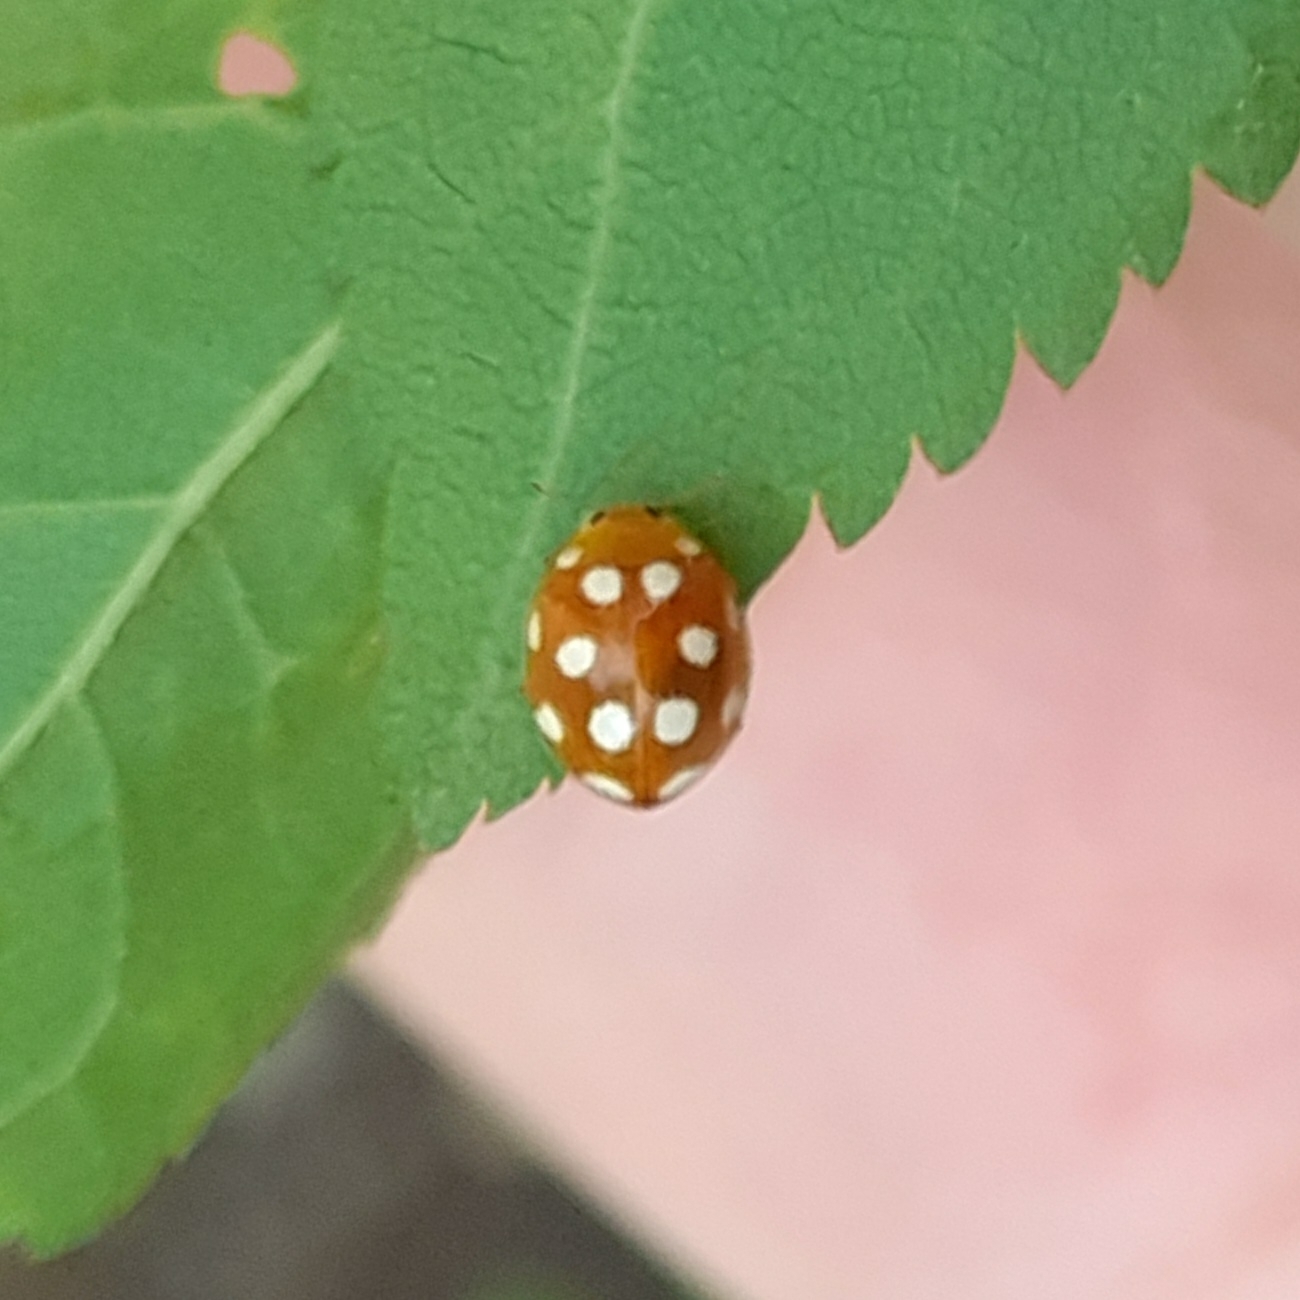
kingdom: Animalia
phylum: Arthropoda
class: Insecta
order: Coleoptera
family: Coccinellidae
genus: Vibidia
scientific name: Vibidia duodecimguttata
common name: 12-spot ladybird
